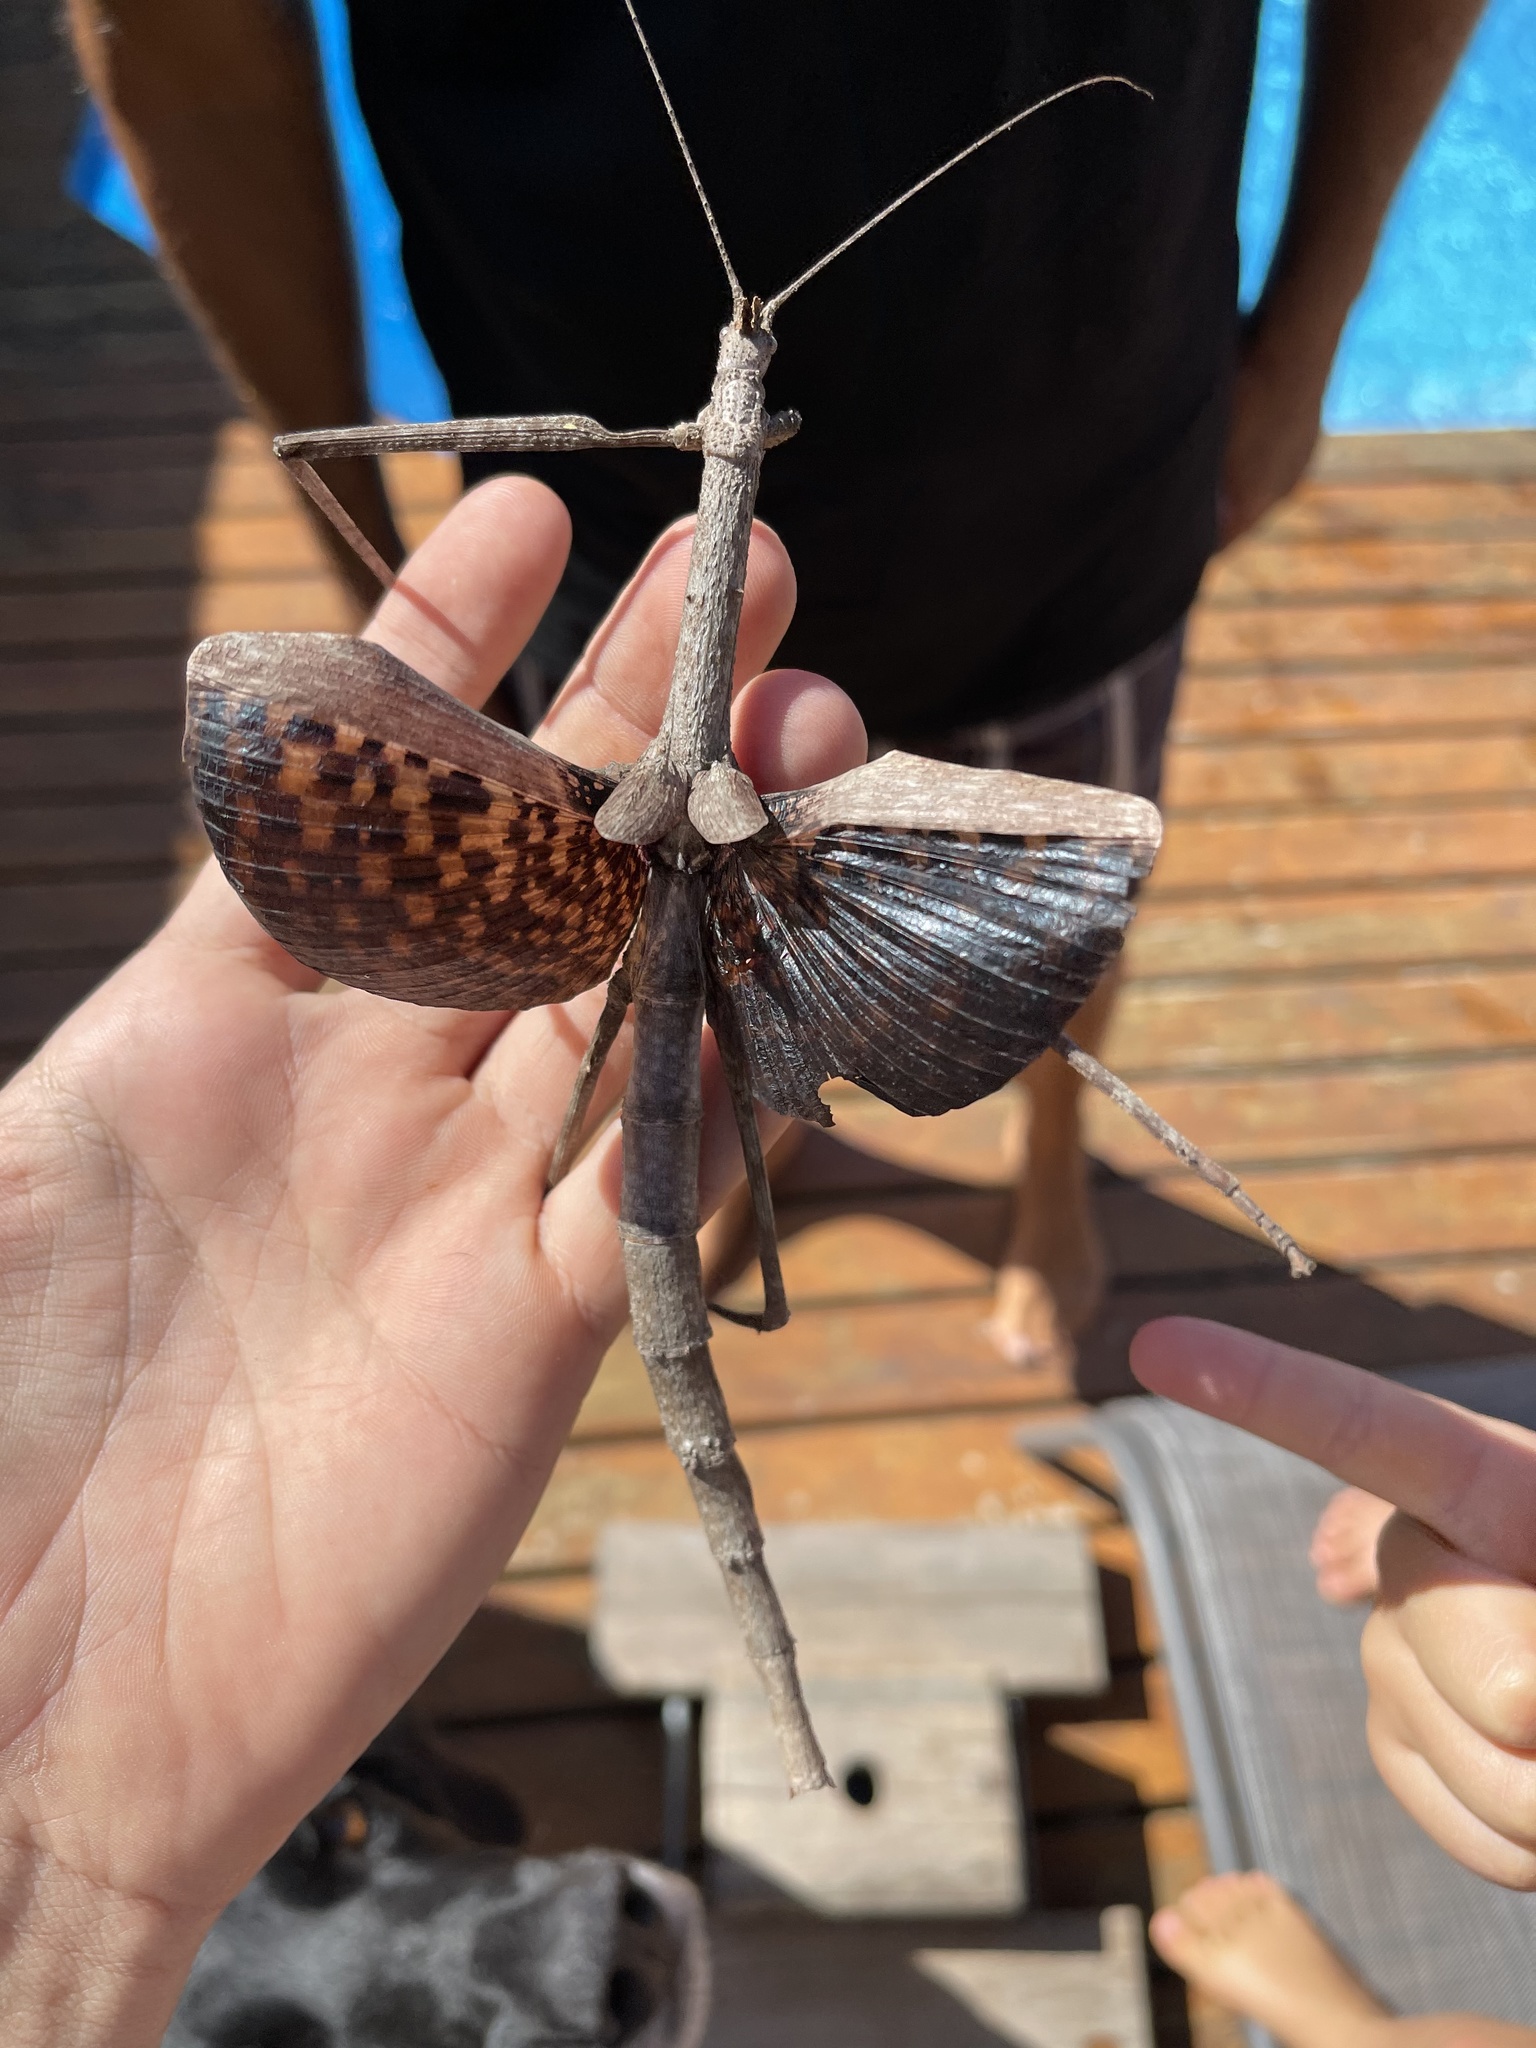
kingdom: Animalia
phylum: Arthropoda
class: Insecta
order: Phasmida
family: Diapheromeridae
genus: Bactrododema
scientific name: Bactrododema haworthii
